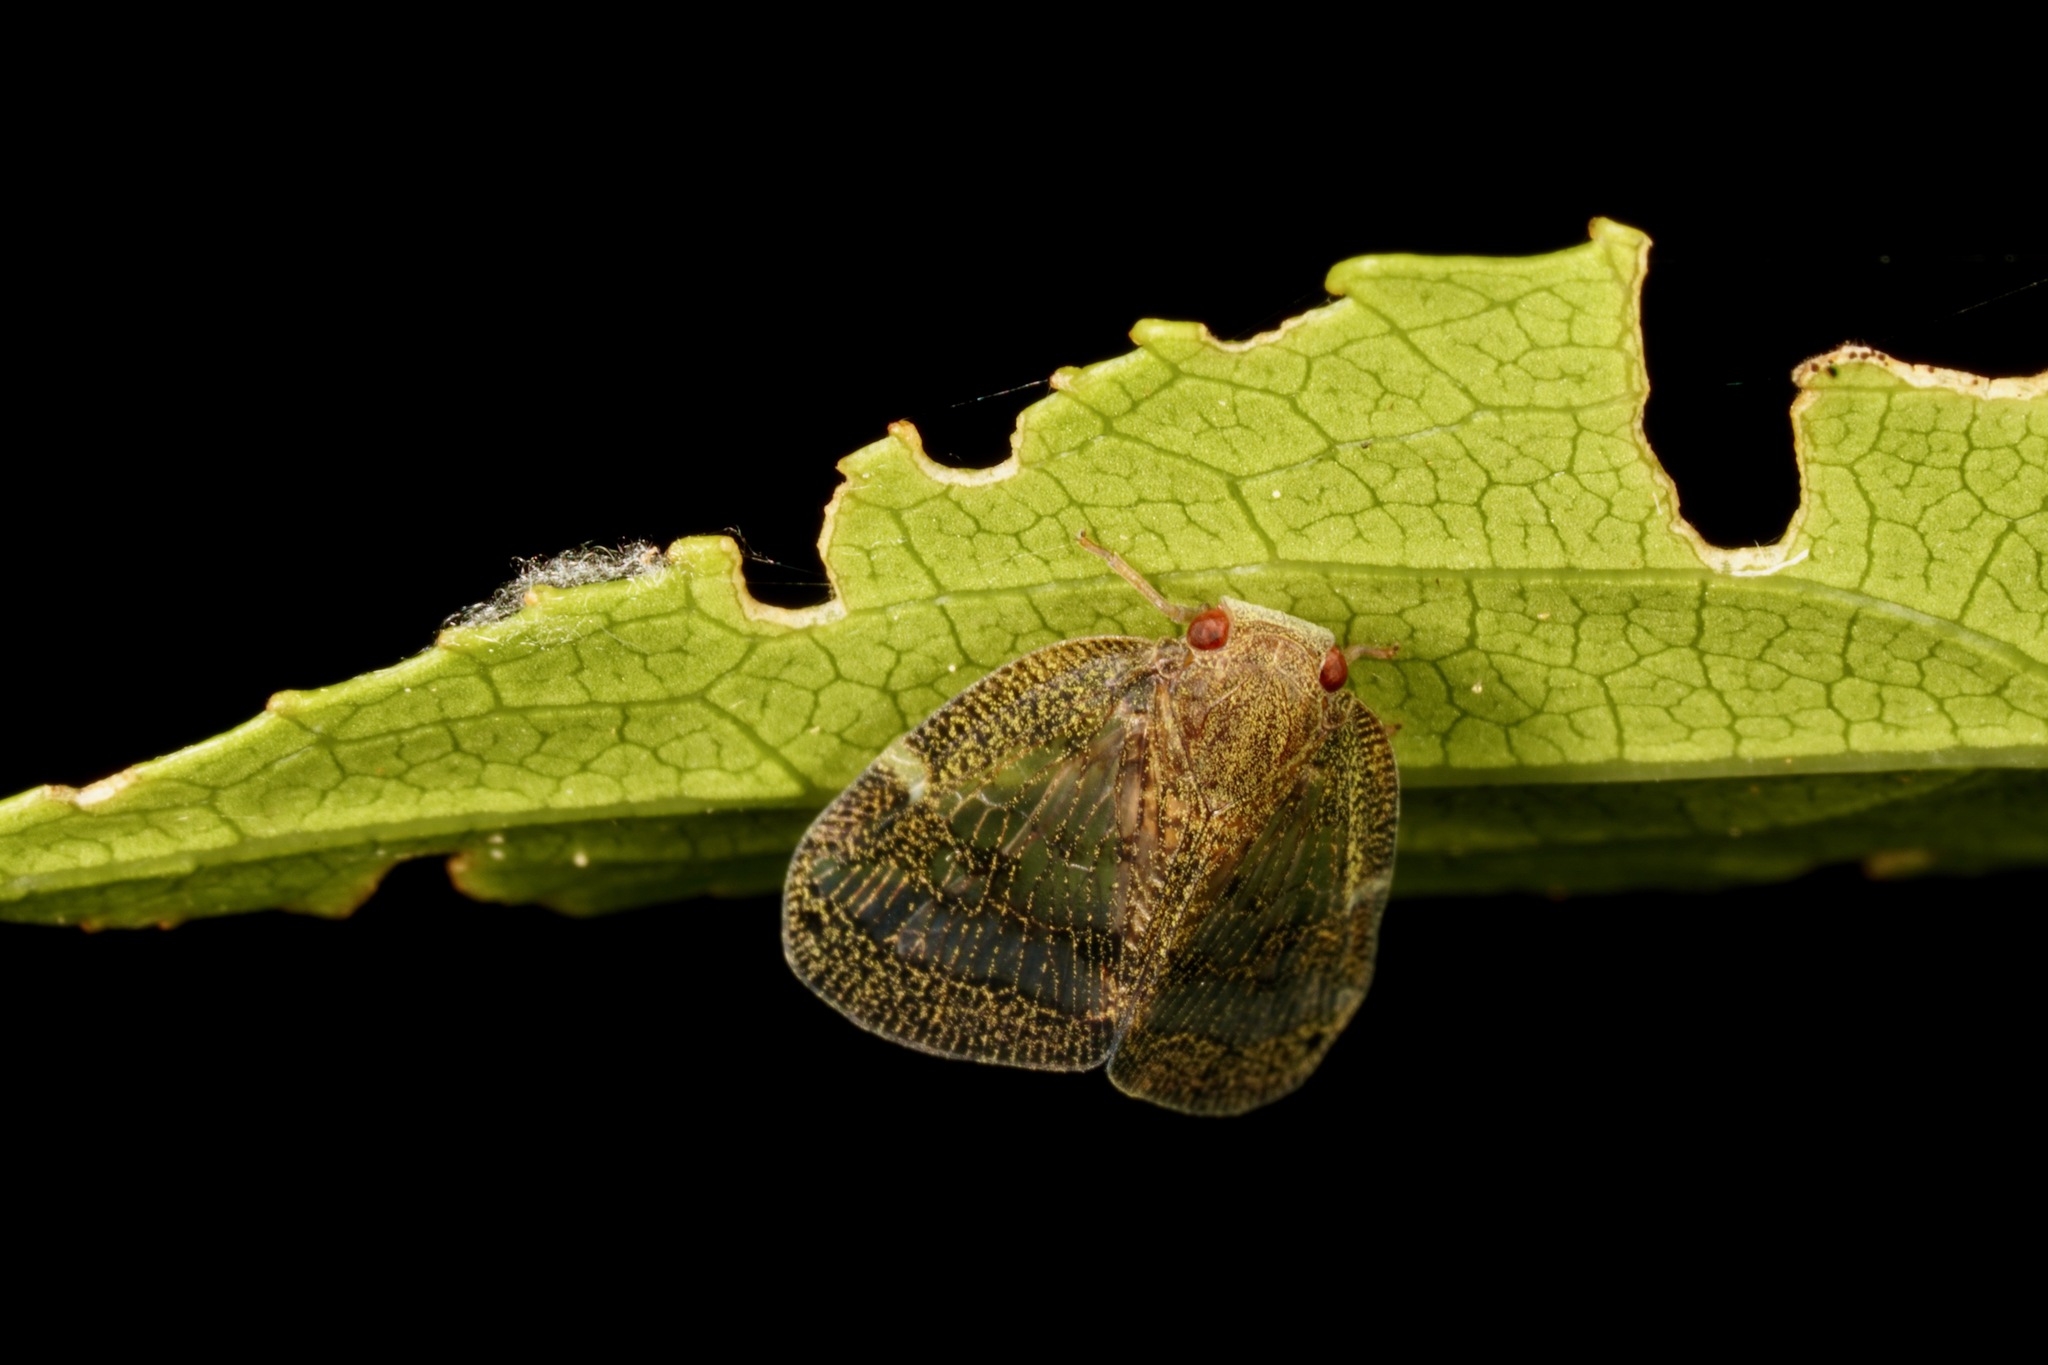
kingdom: Animalia
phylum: Arthropoda
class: Insecta
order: Hemiptera
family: Ricaniidae
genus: Scolypopa
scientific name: Scolypopa australis
